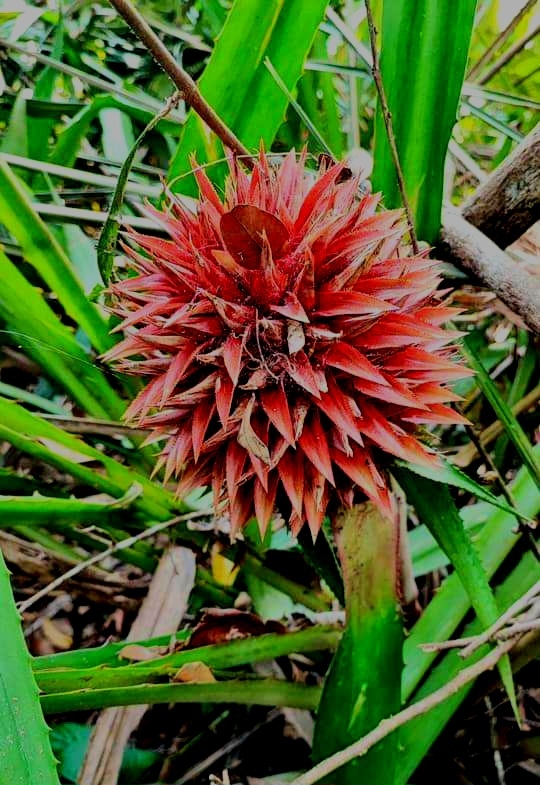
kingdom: Plantae
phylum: Tracheophyta
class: Liliopsida
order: Poales
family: Bromeliaceae
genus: Aechmea
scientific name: Aechmea magdalenae
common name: Arghan
